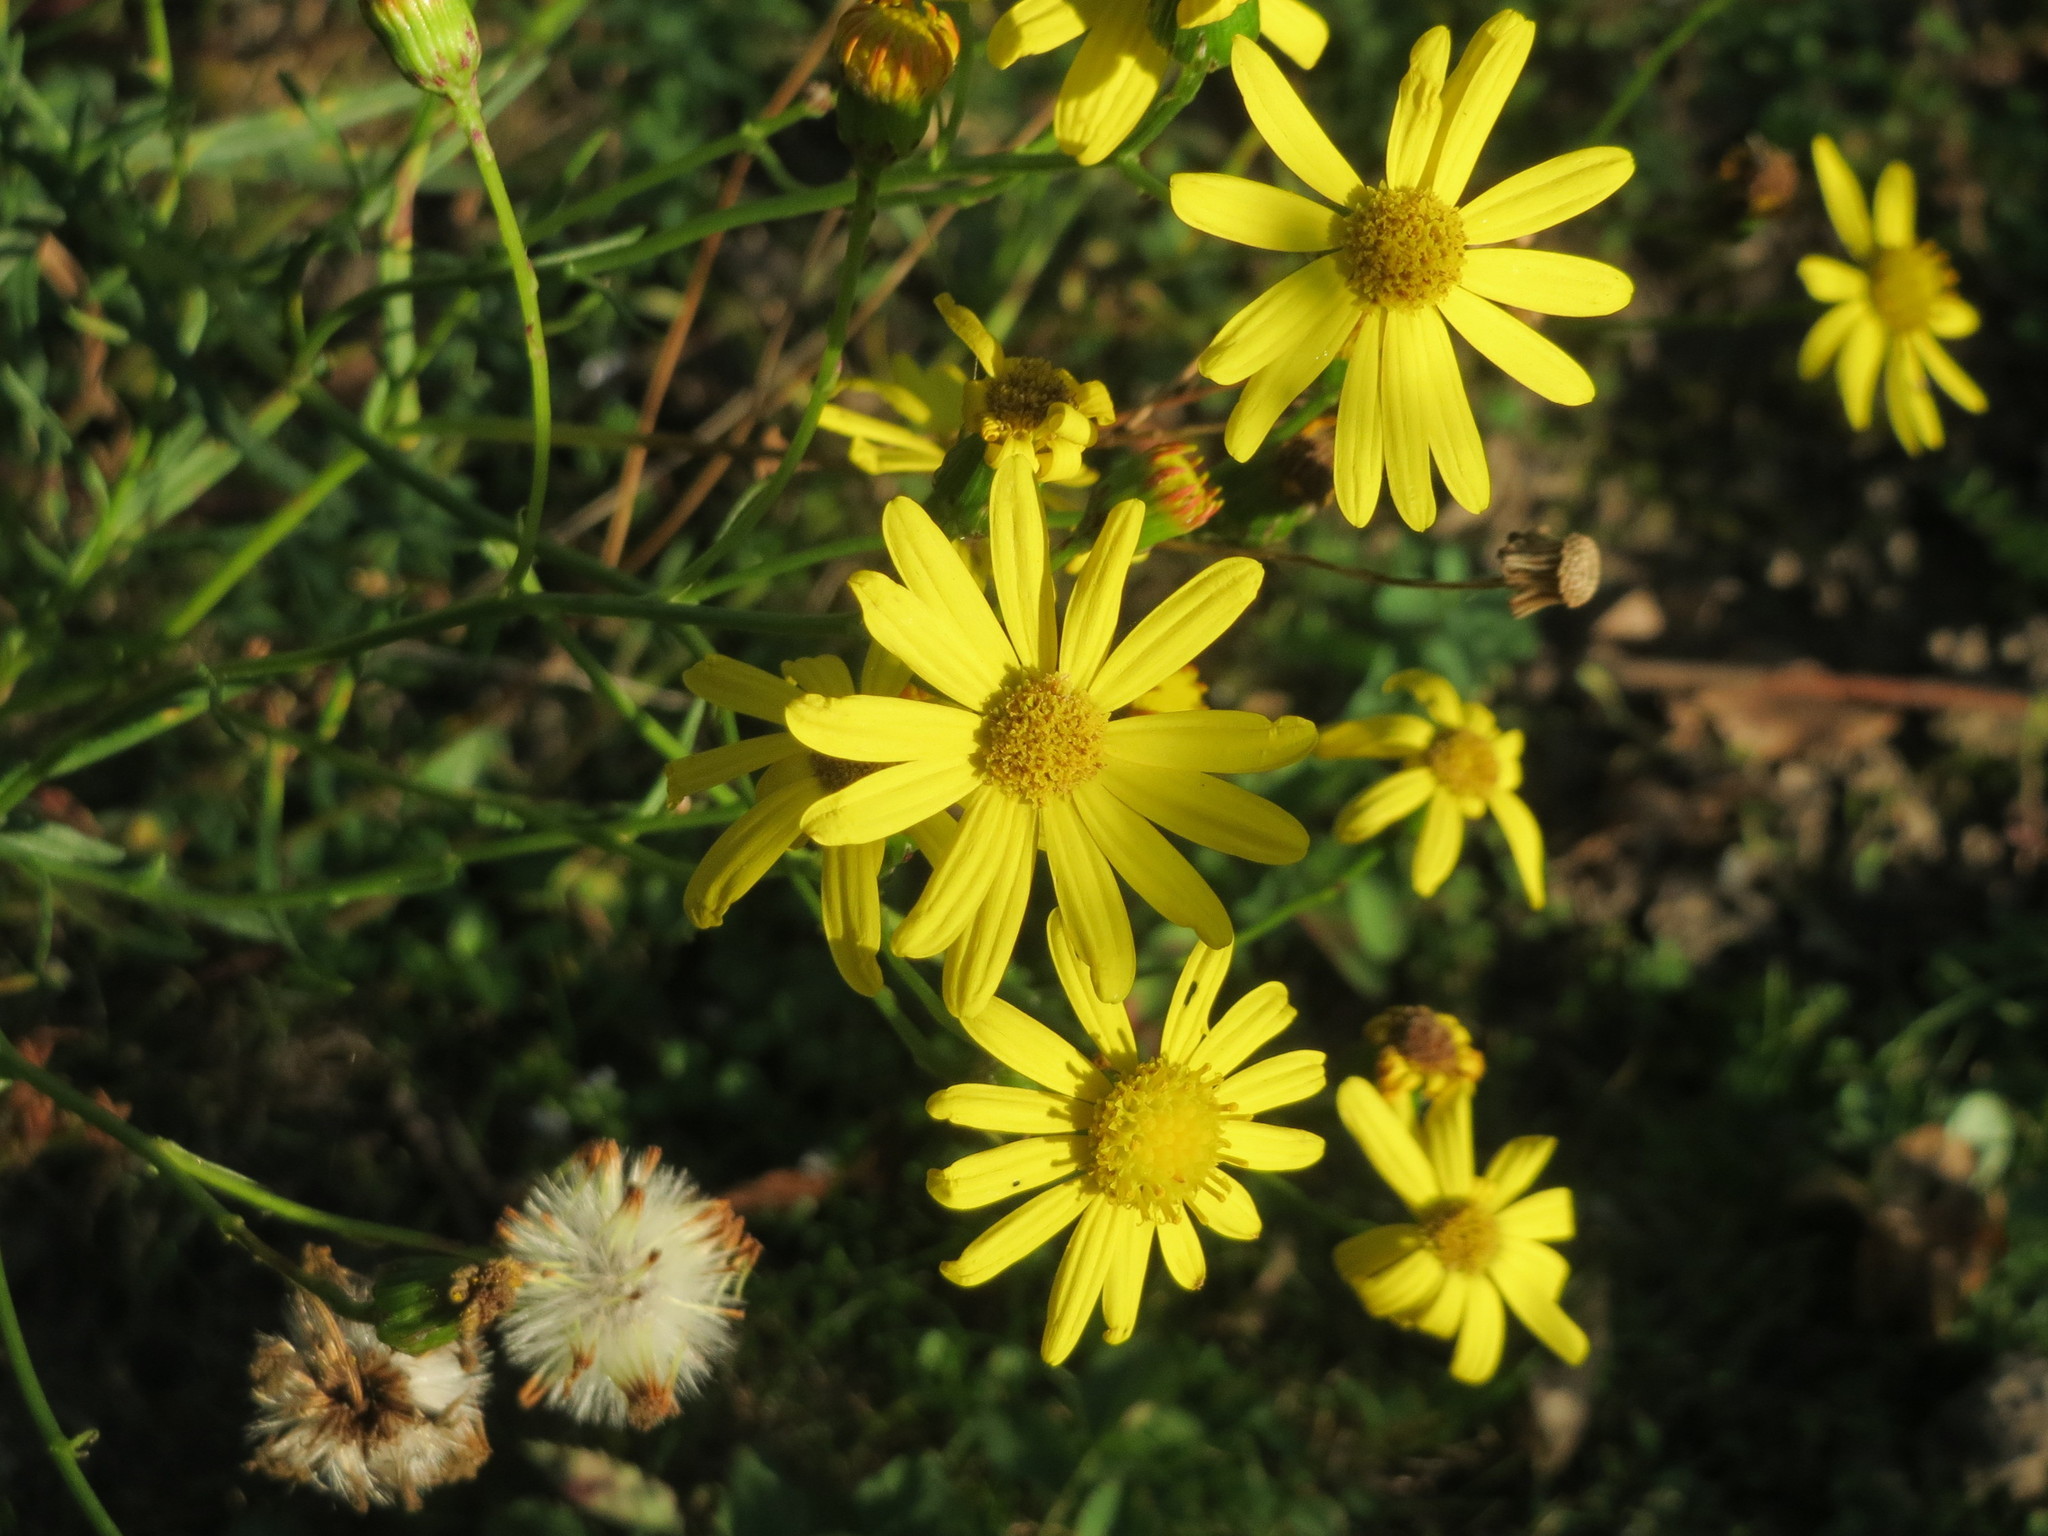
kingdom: Plantae
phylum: Tracheophyta
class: Magnoliopsida
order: Asterales
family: Asteraceae
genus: Senecio
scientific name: Senecio inaequidens
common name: Narrow-leaved ragwort
